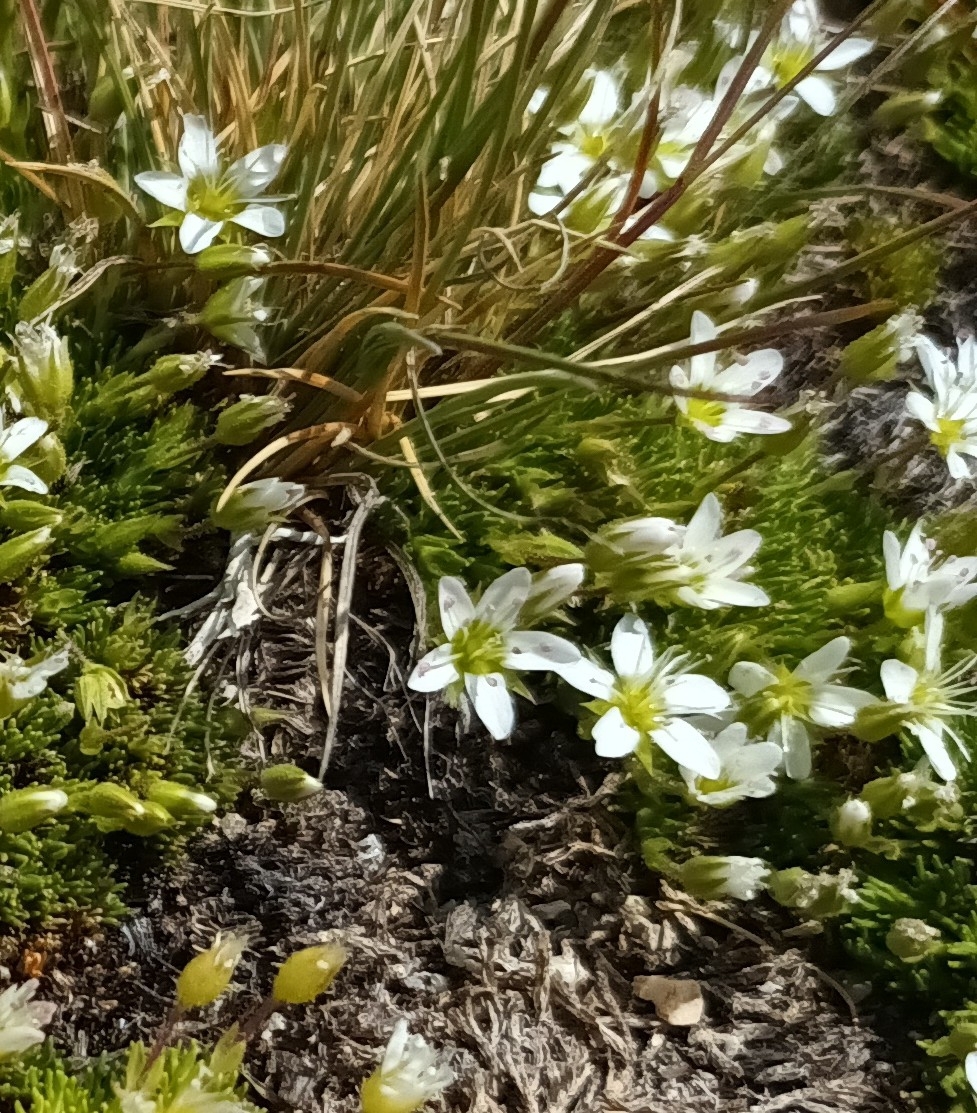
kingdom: Plantae
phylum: Tracheophyta
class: Magnoliopsida
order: Caryophyllales
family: Caryophyllaceae
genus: Minuartia
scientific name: Minuartia recurva
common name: Recurved sandwort
